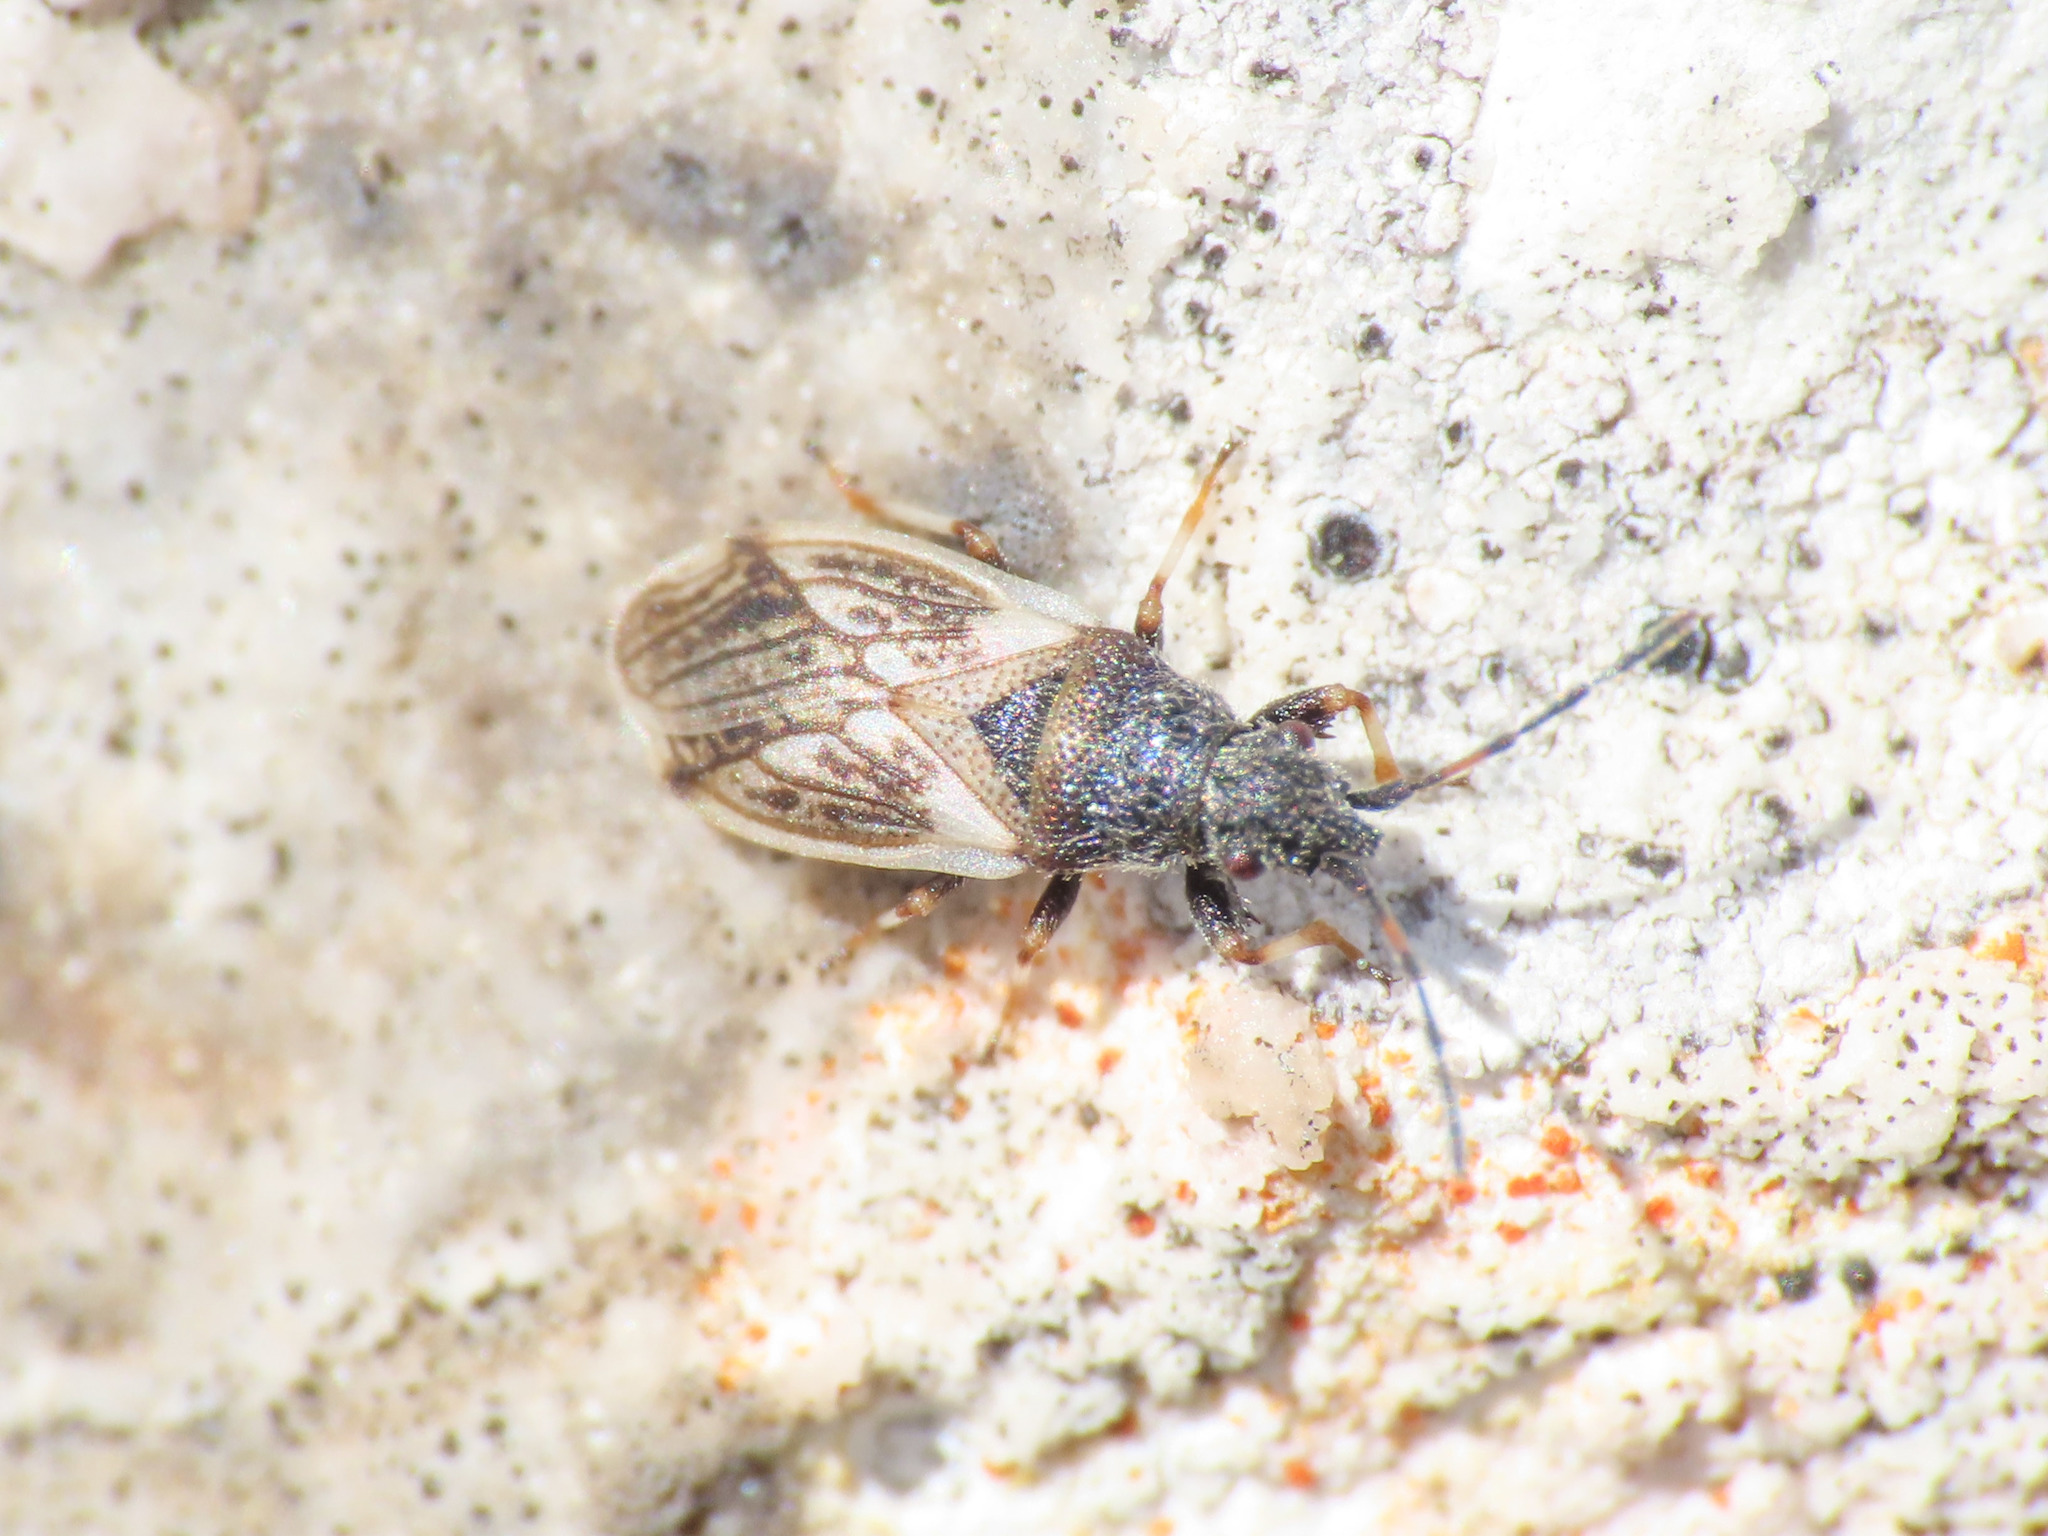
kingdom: Animalia
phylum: Arthropoda
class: Insecta
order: Hemiptera
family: Oxycarenidae
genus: Macroplax
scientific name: Macroplax preyssleri
